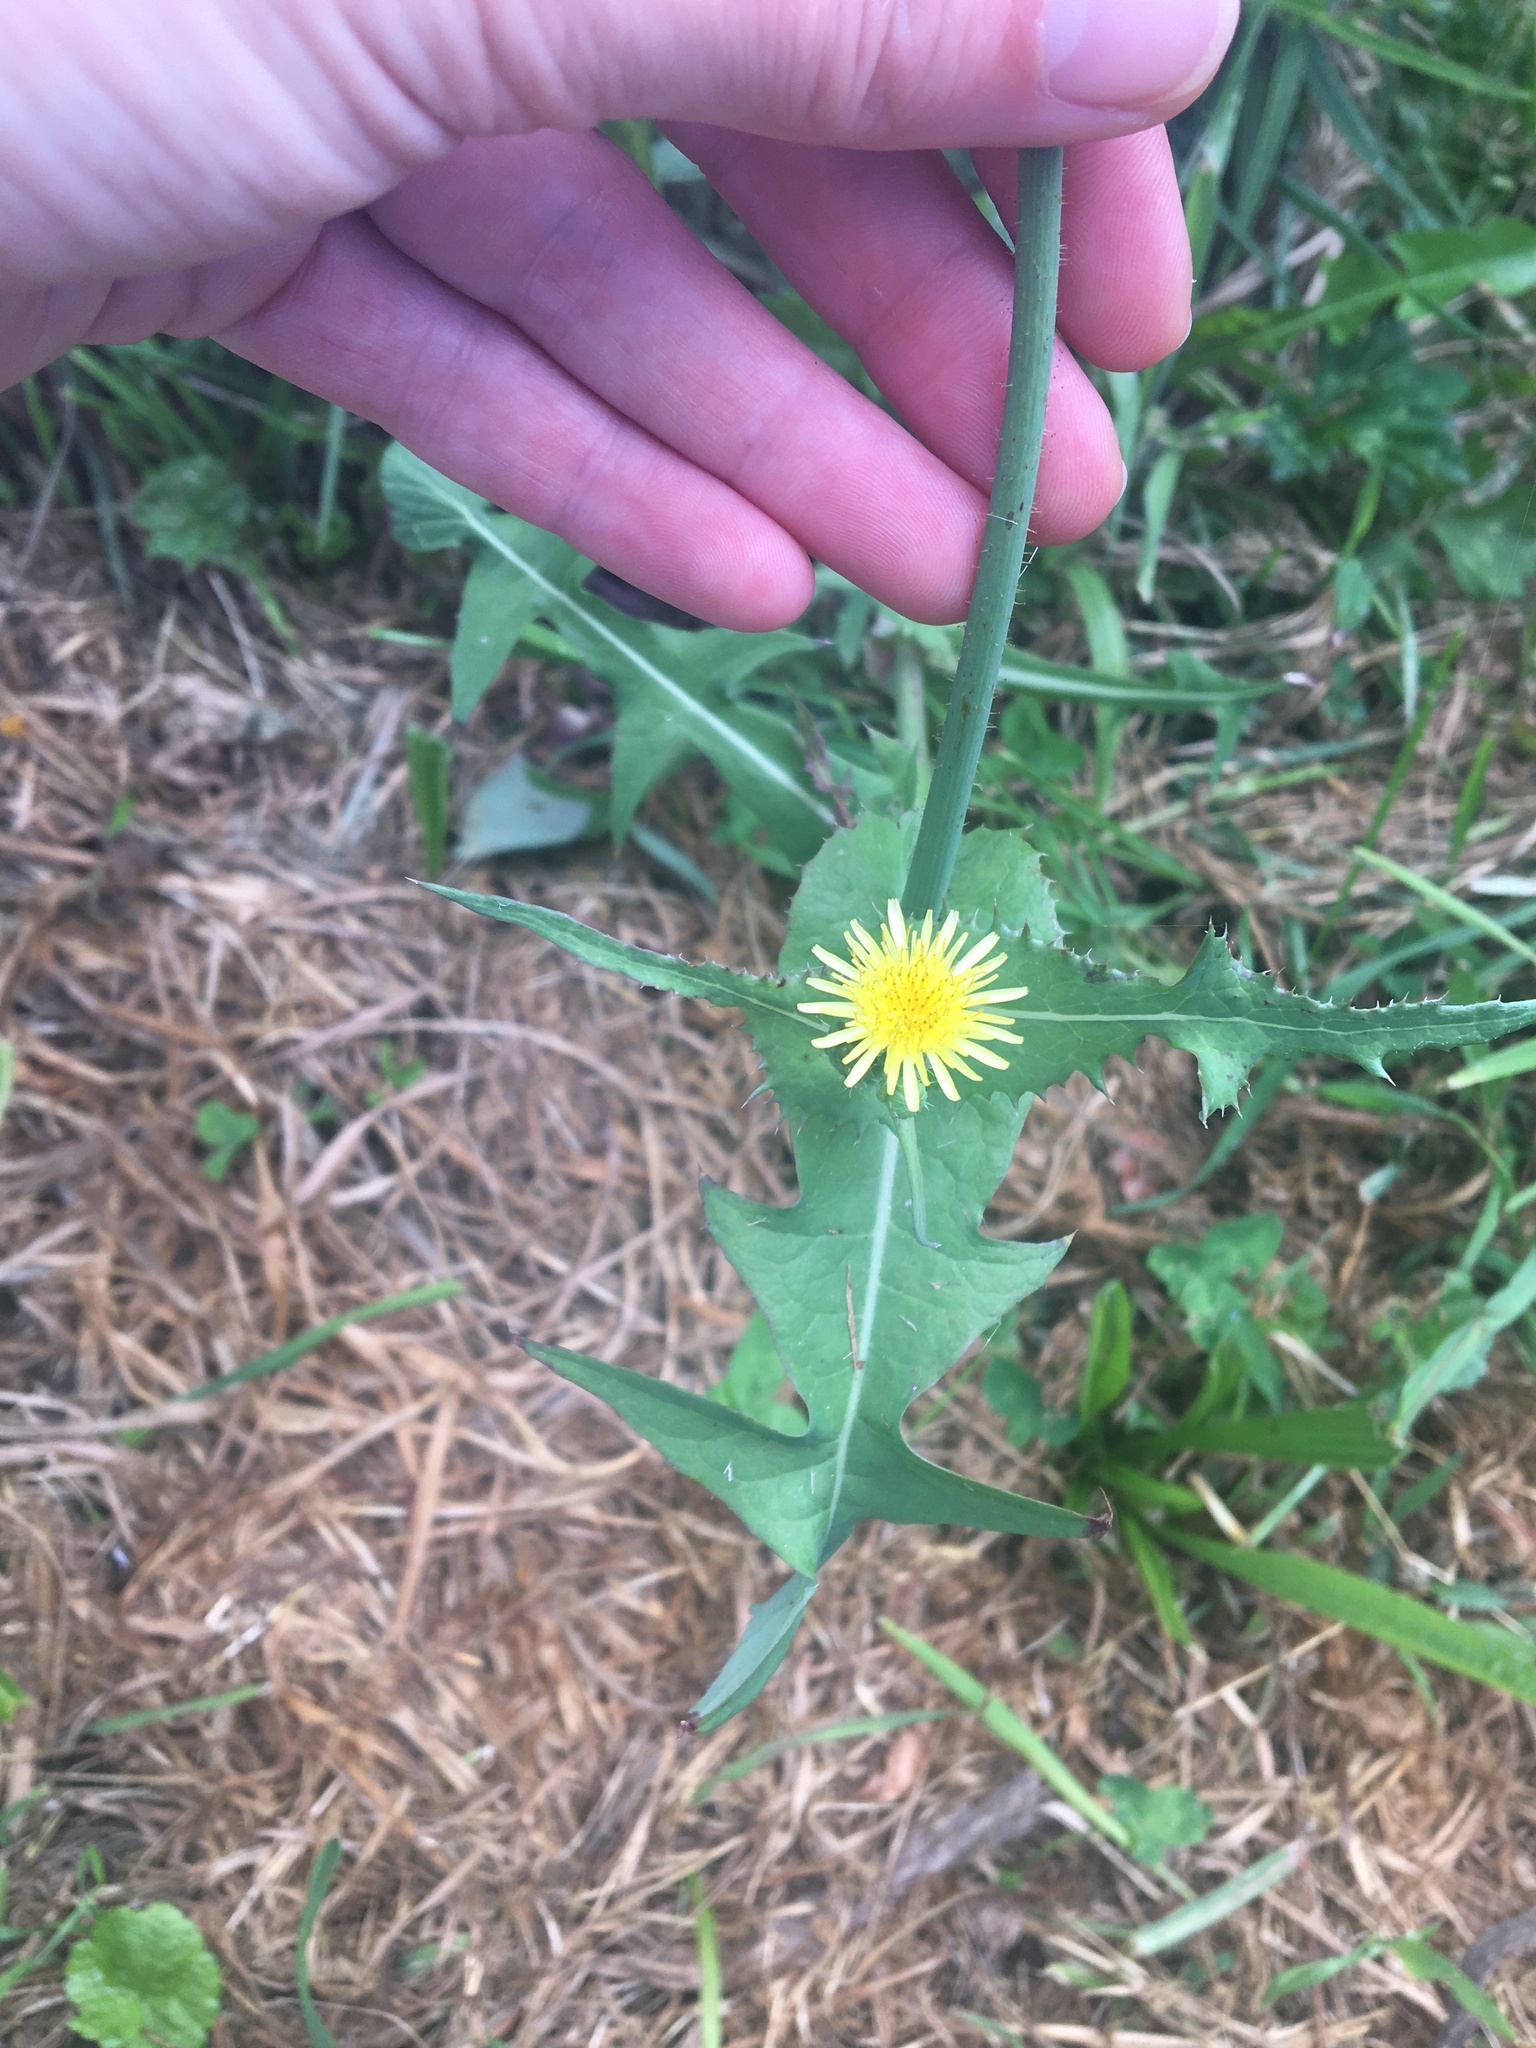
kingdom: Plantae
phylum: Tracheophyta
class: Magnoliopsida
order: Asterales
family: Asteraceae
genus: Sonchus
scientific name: Sonchus oleraceus
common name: Common sowthistle
